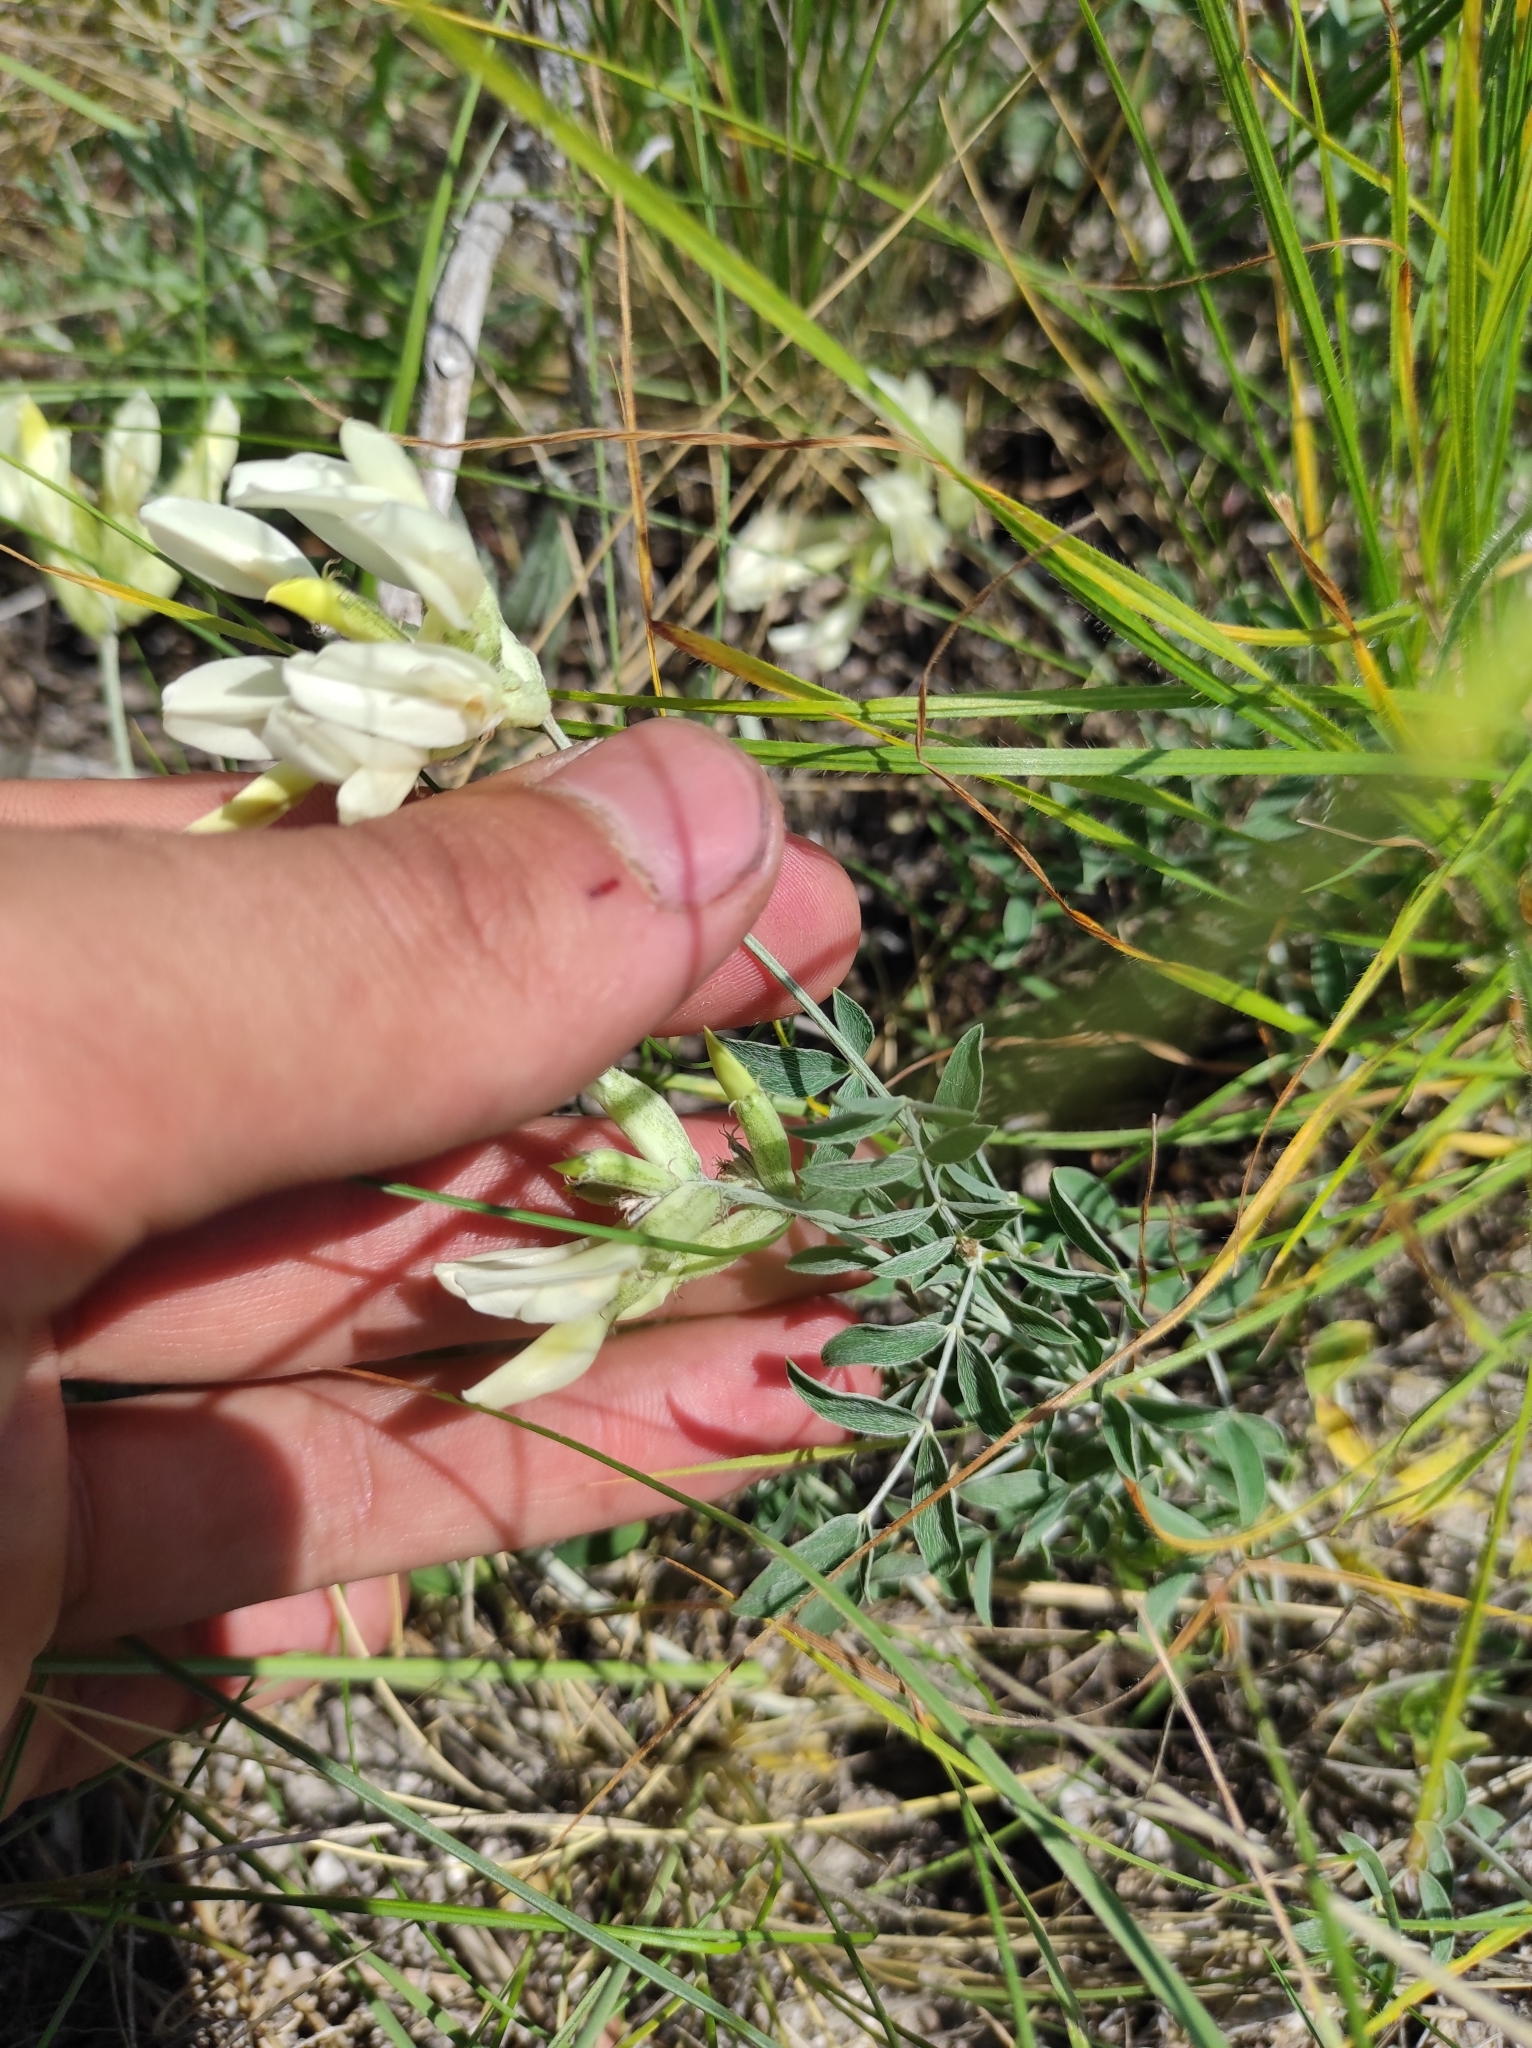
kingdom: Plantae
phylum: Tracheophyta
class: Magnoliopsida
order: Fabales
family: Fabaceae
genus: Astragalus
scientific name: Astragalus albicaulis
